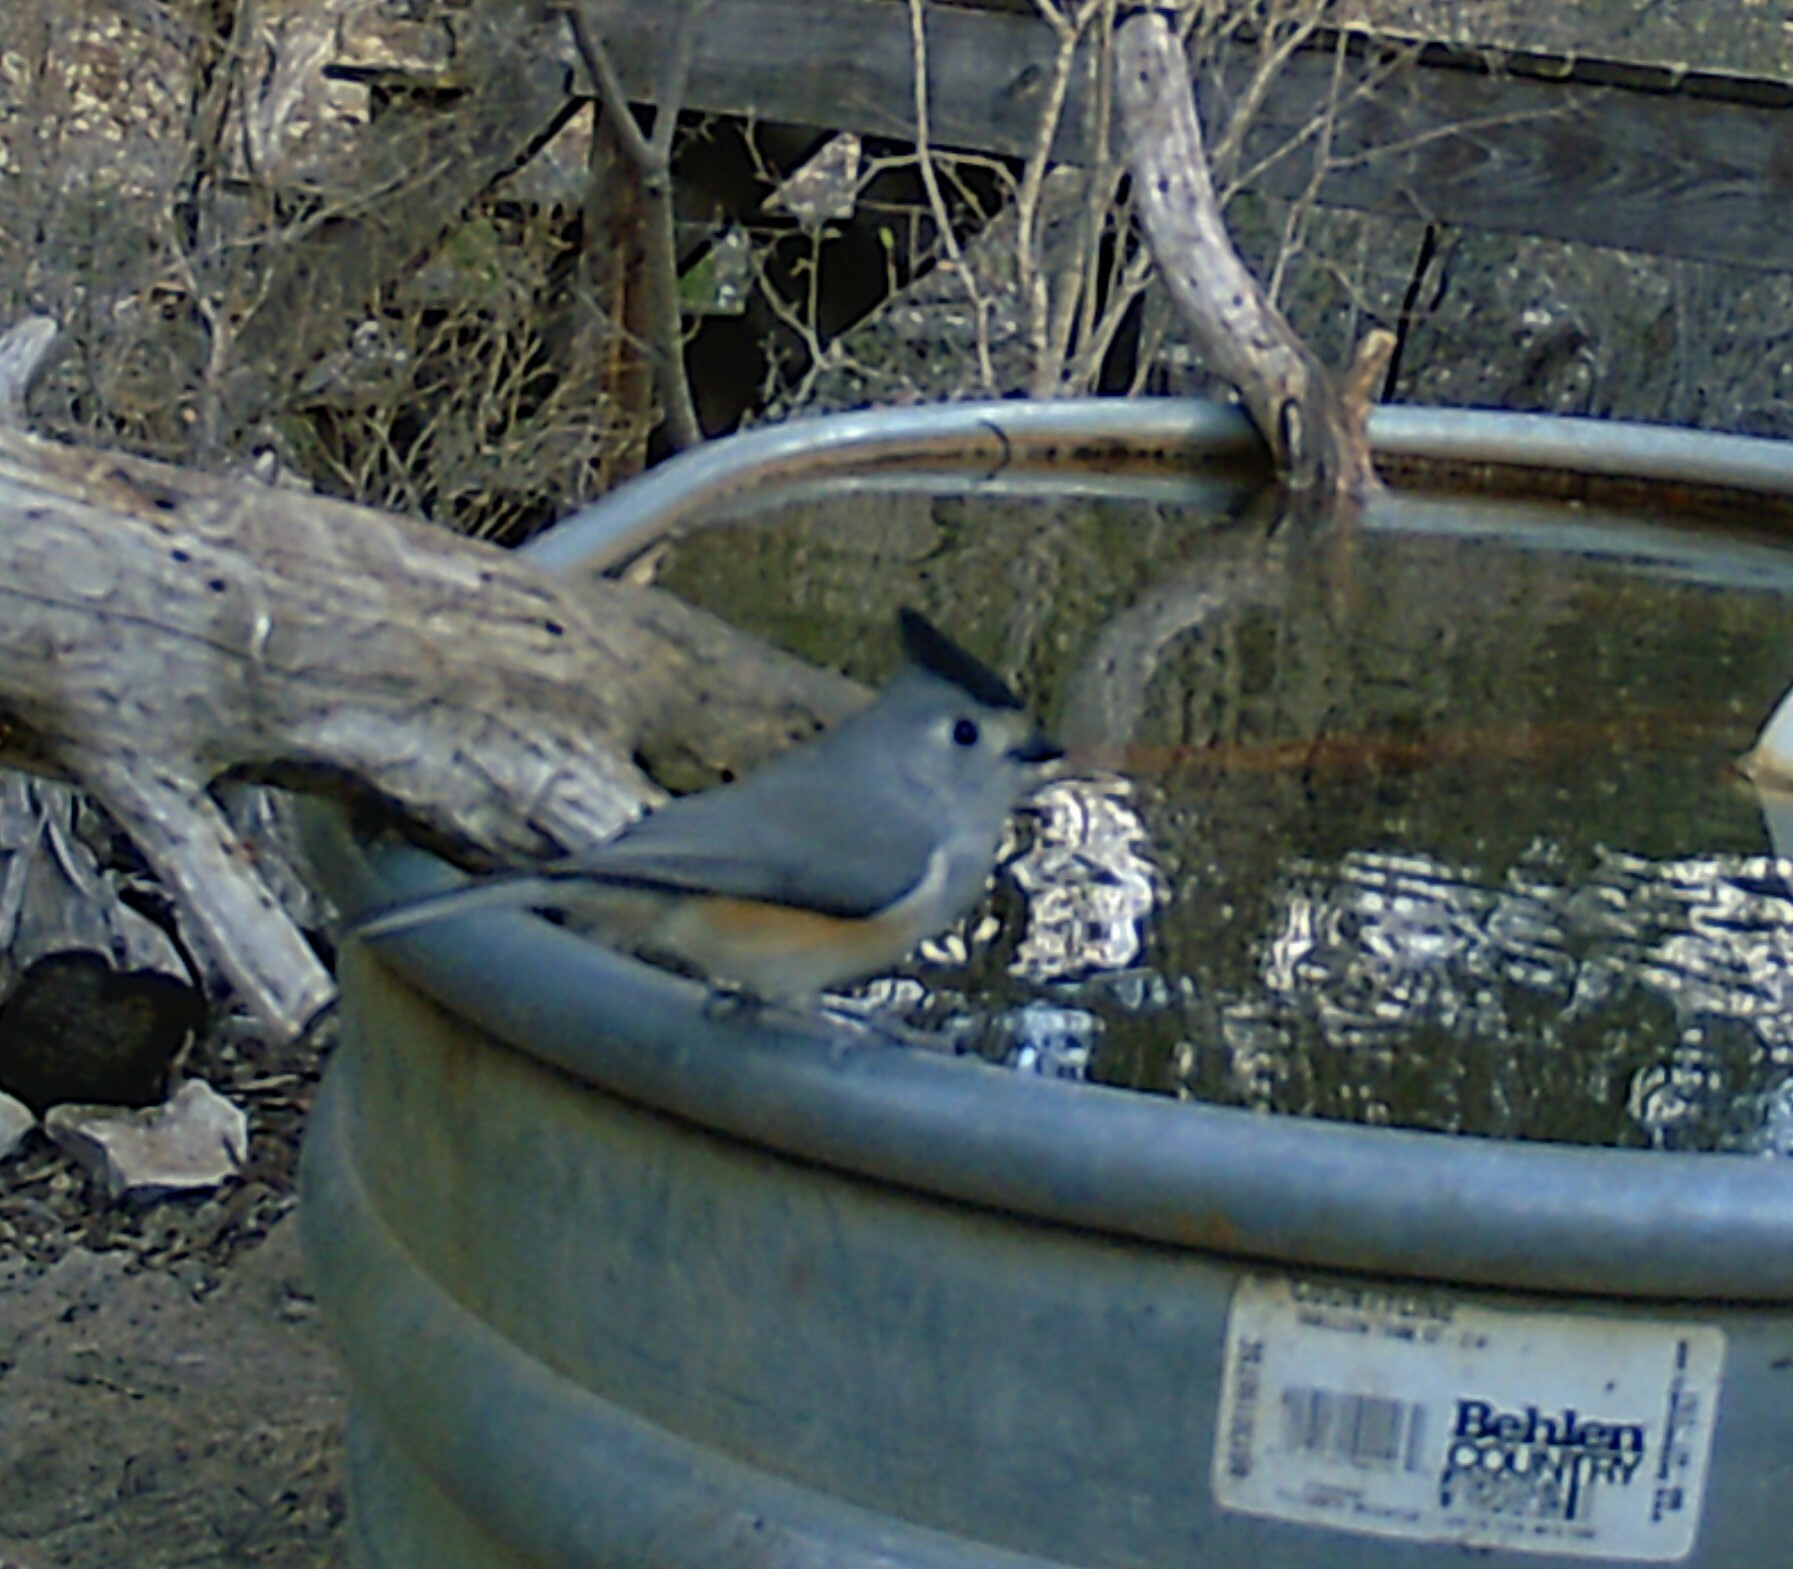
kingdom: Animalia
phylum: Chordata
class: Aves
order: Passeriformes
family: Paridae
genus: Baeolophus
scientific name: Baeolophus atricristatus
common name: Black-crested titmouse
